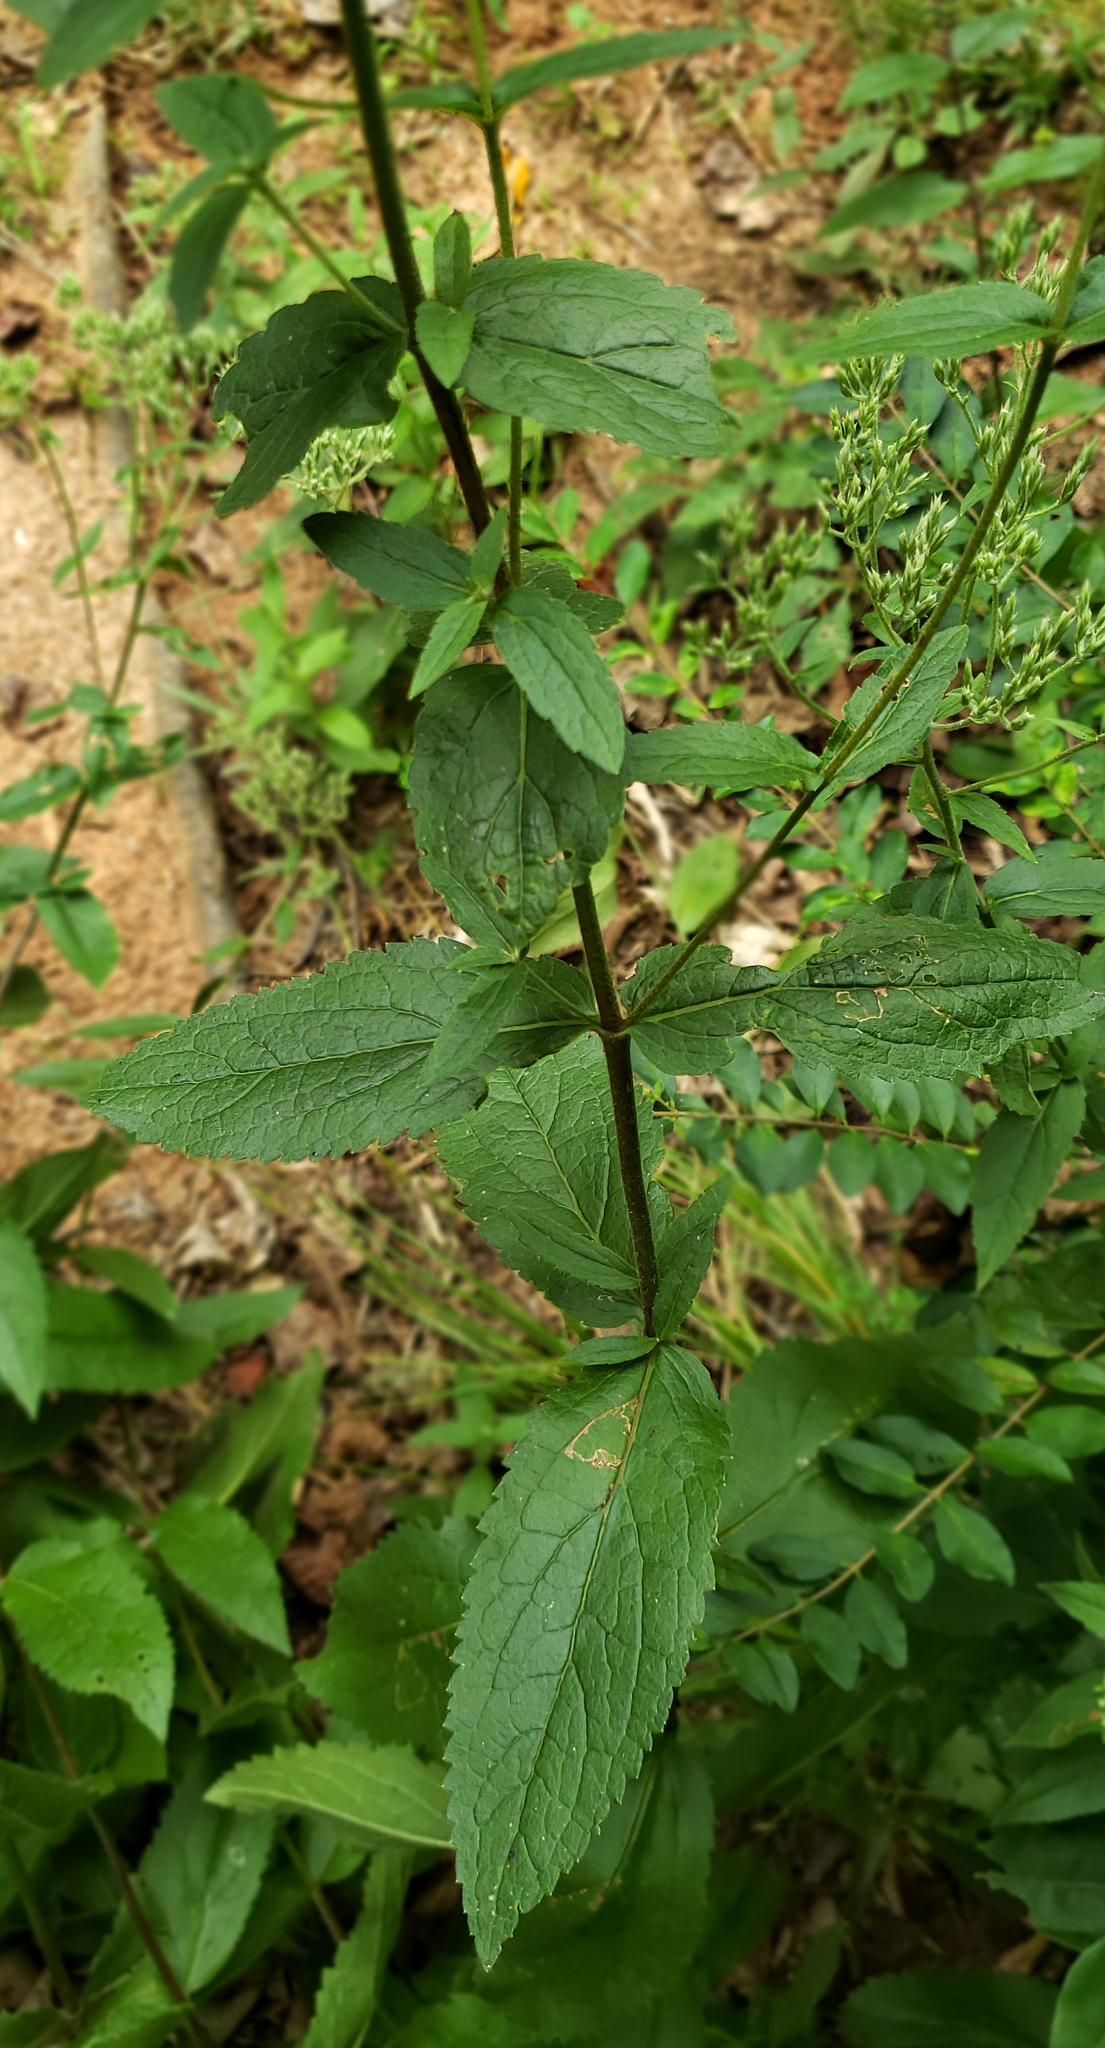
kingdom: Plantae
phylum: Tracheophyta
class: Magnoliopsida
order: Asterales
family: Asteraceae
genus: Eupatorium
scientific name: Eupatorium album
